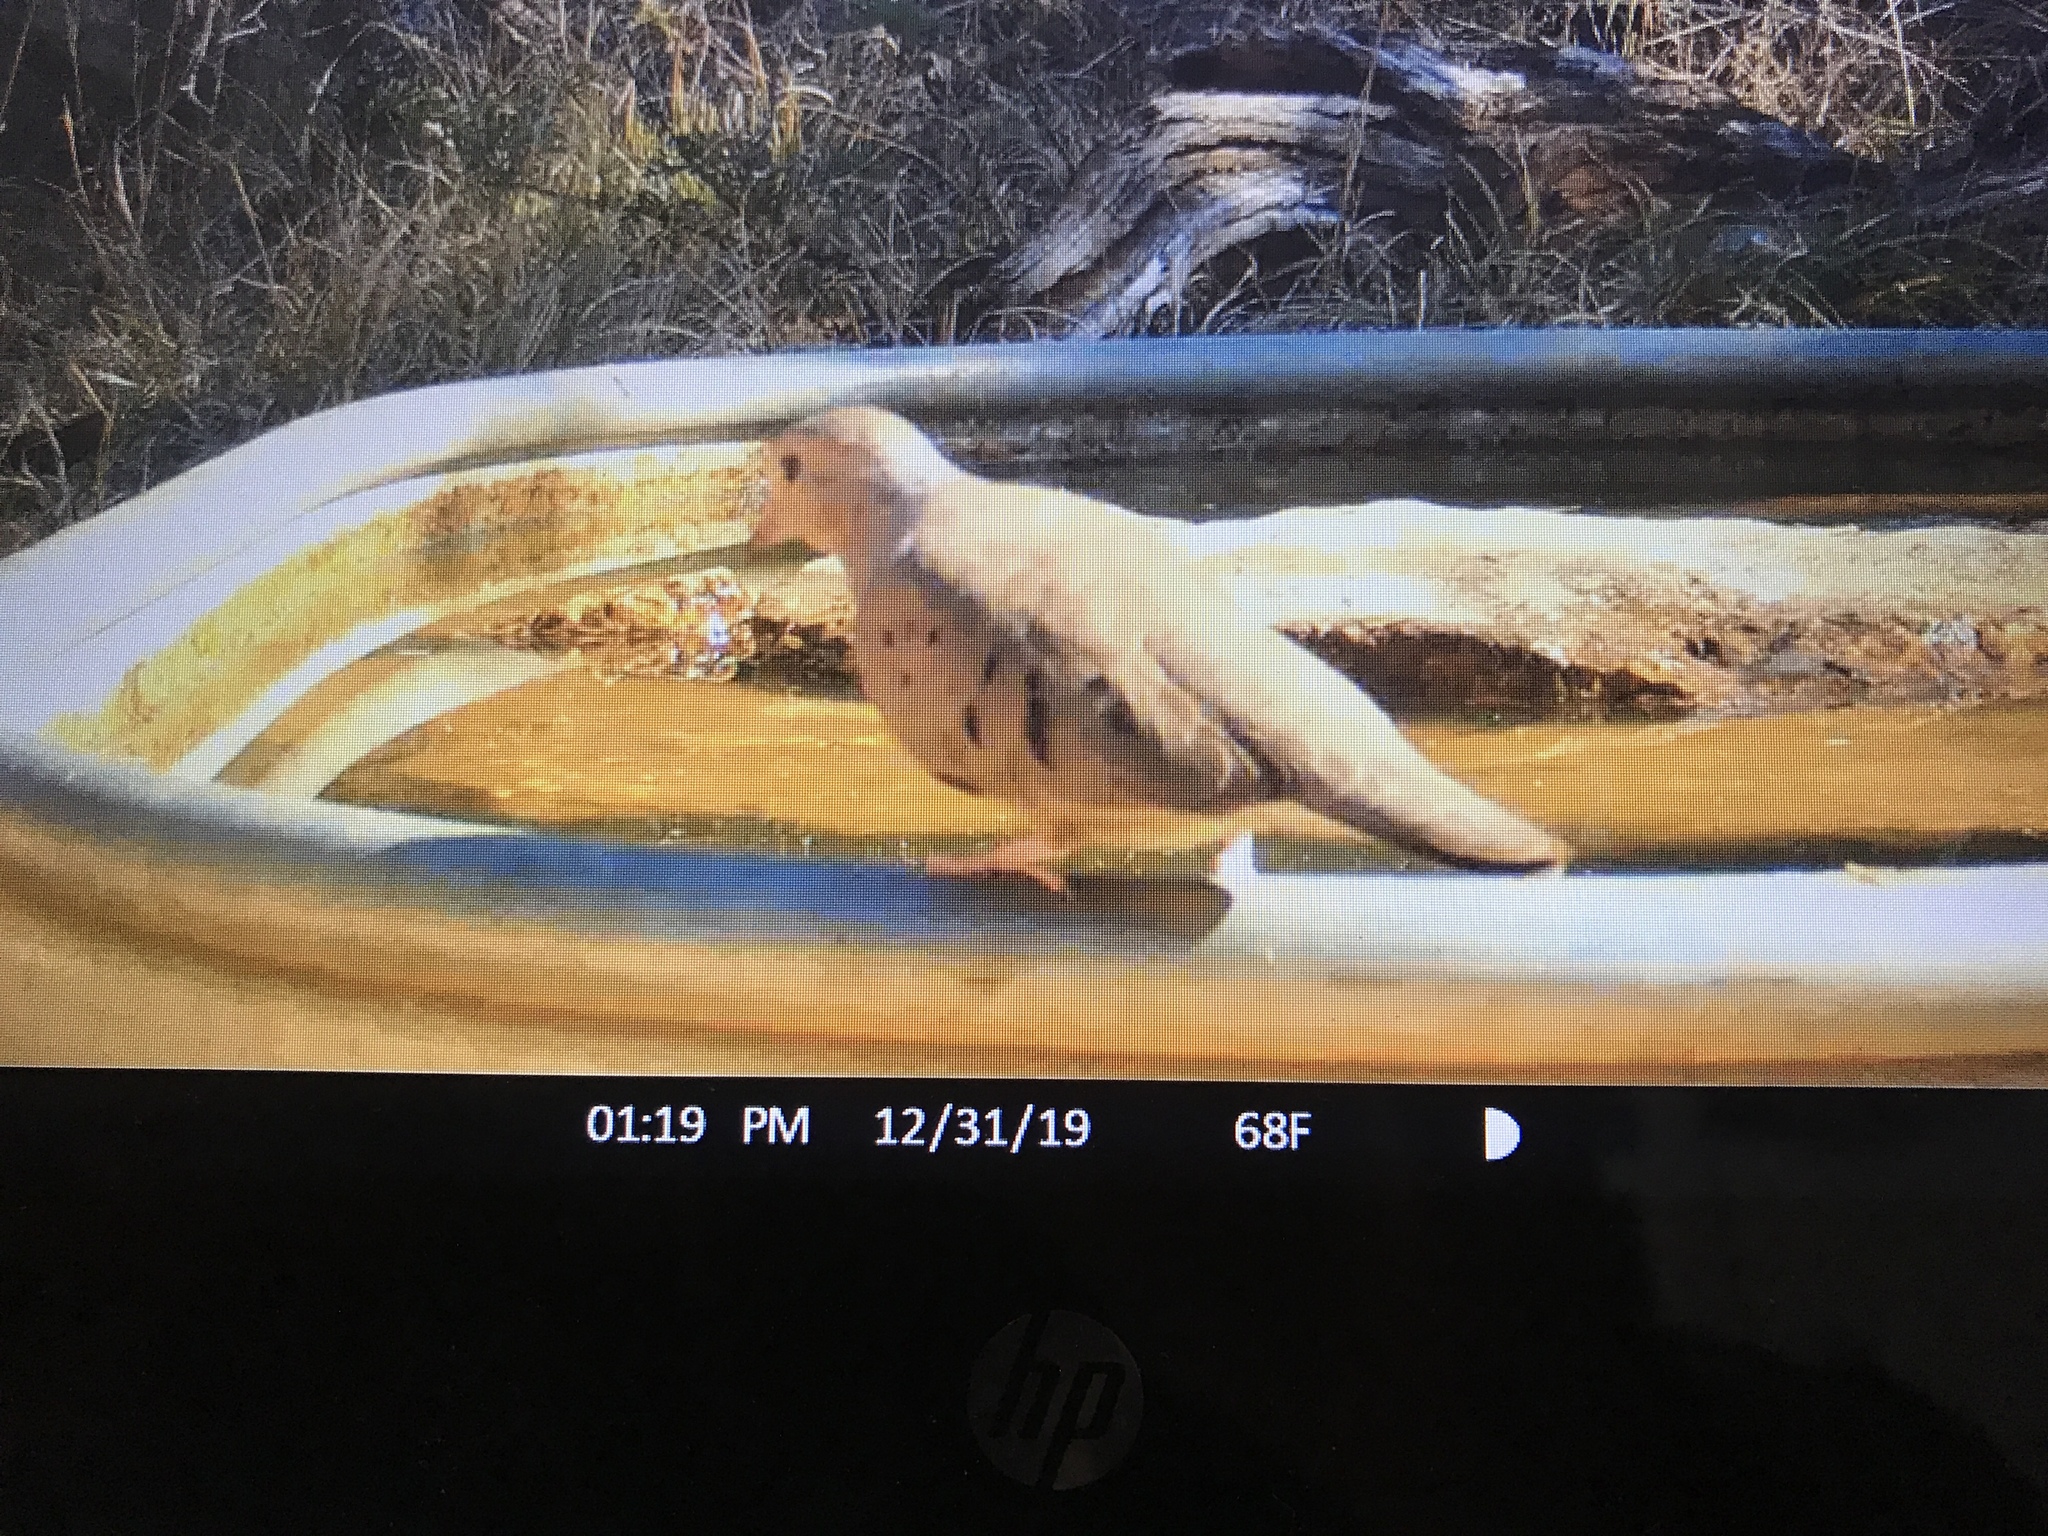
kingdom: Animalia
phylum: Chordata
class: Aves
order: Columbiformes
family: Columbidae
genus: Columbina
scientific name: Columbina passerina
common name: Common ground-dove
